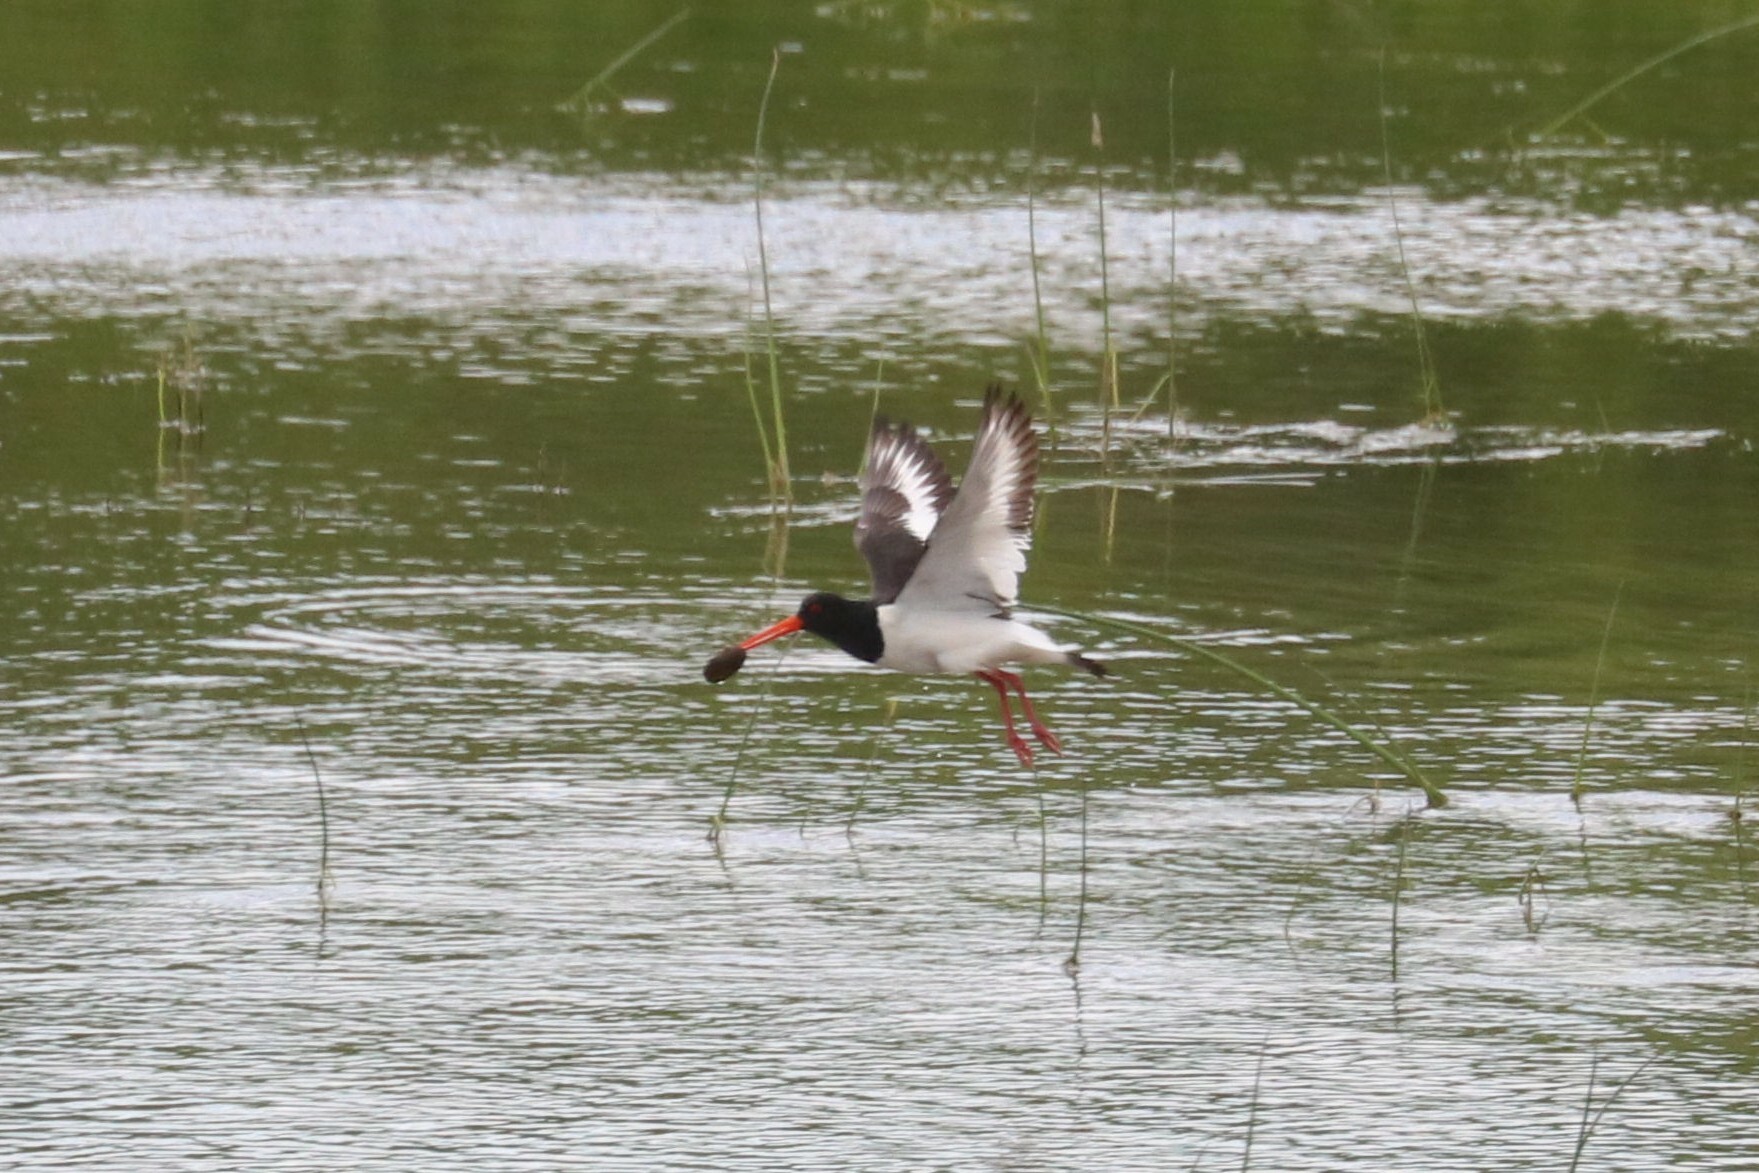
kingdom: Animalia
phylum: Chordata
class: Aves
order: Charadriiformes
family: Haematopodidae
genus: Haematopus
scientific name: Haematopus ostralegus
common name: Eurasian oystercatcher
